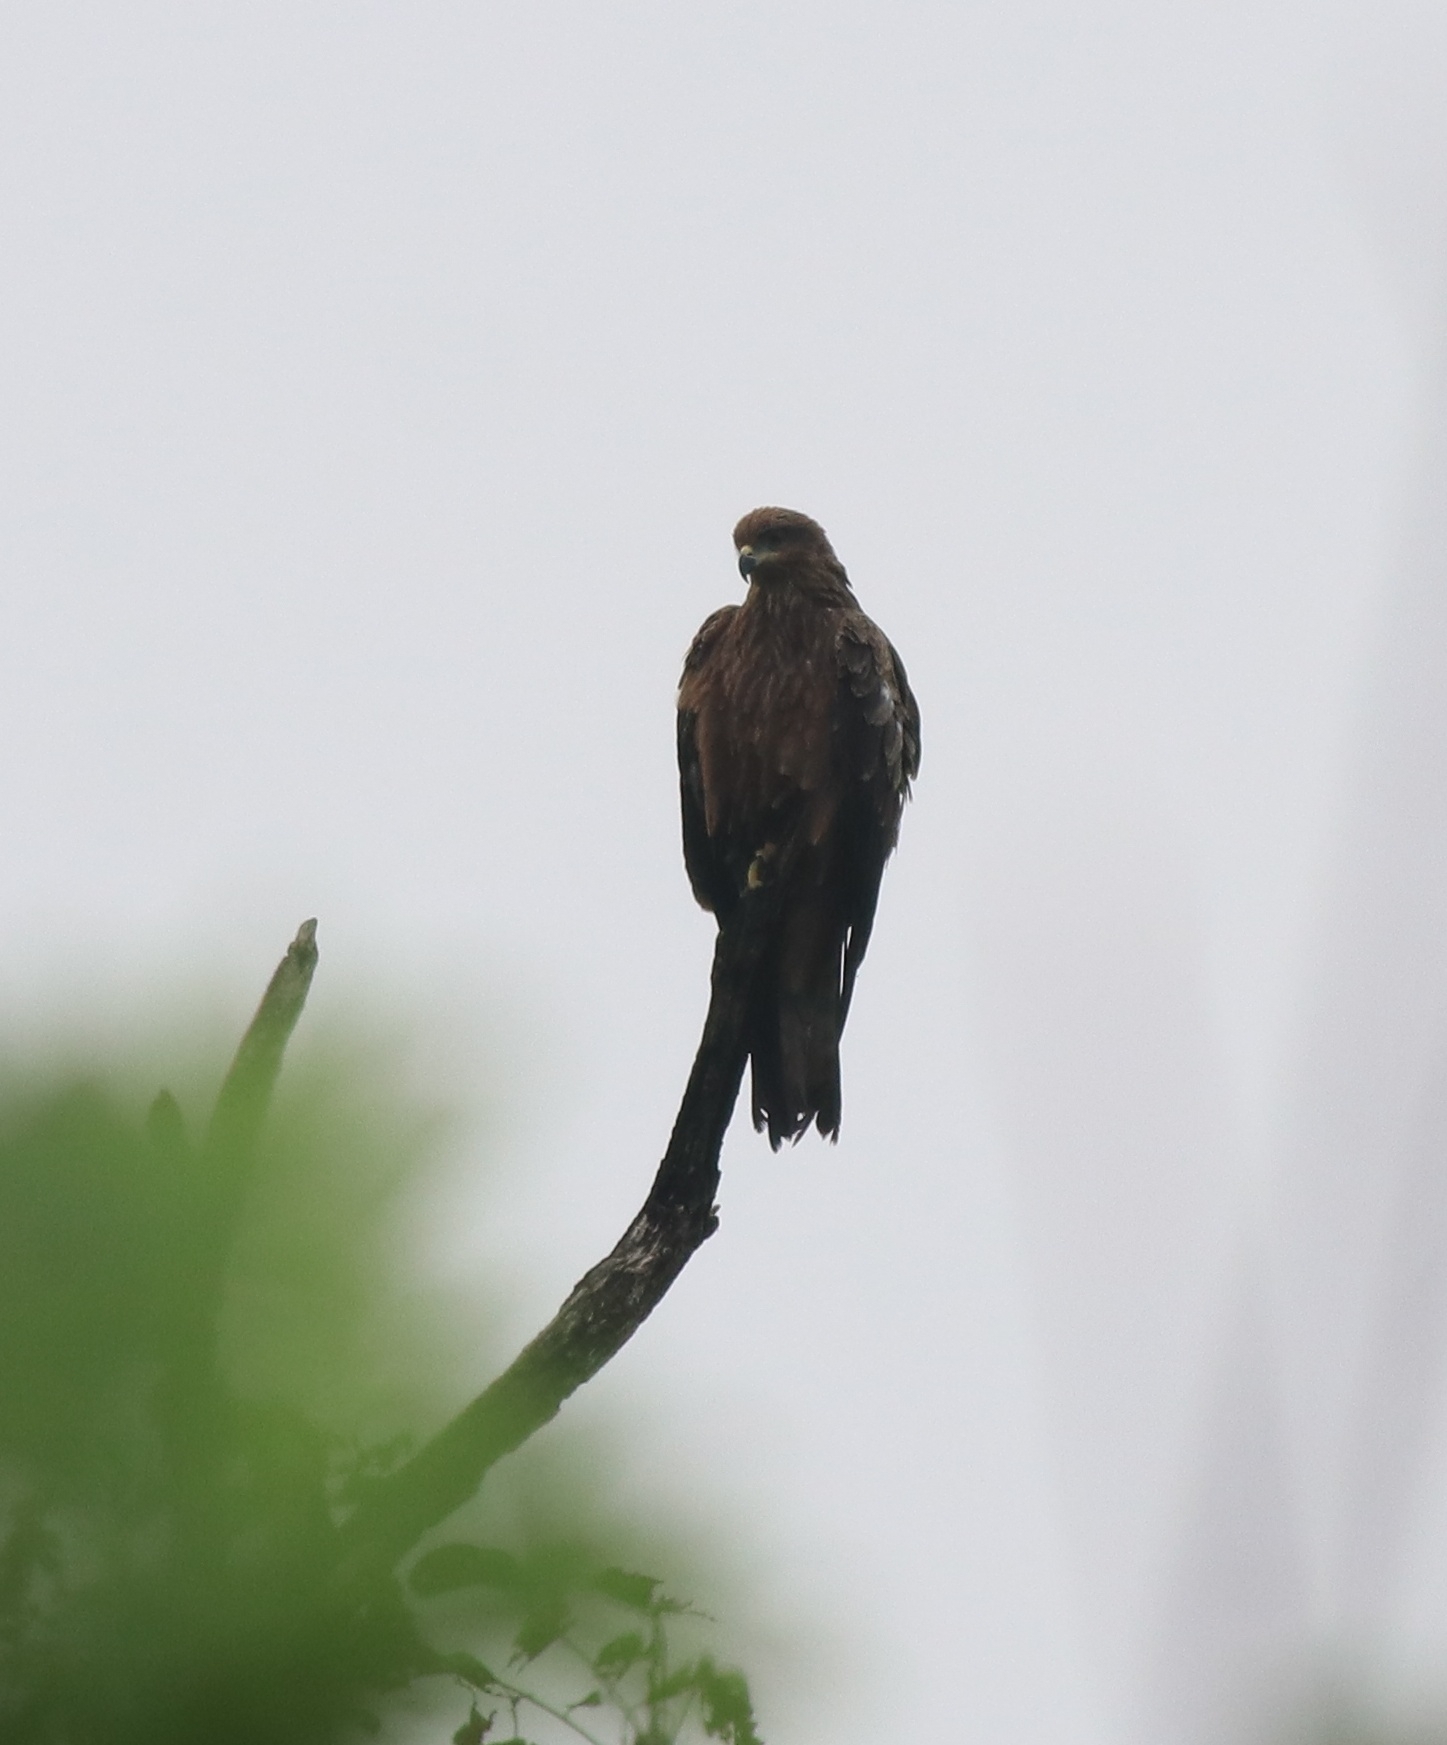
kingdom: Animalia
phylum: Chordata
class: Aves
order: Accipitriformes
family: Accipitridae
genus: Milvus
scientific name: Milvus migrans
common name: Black kite
